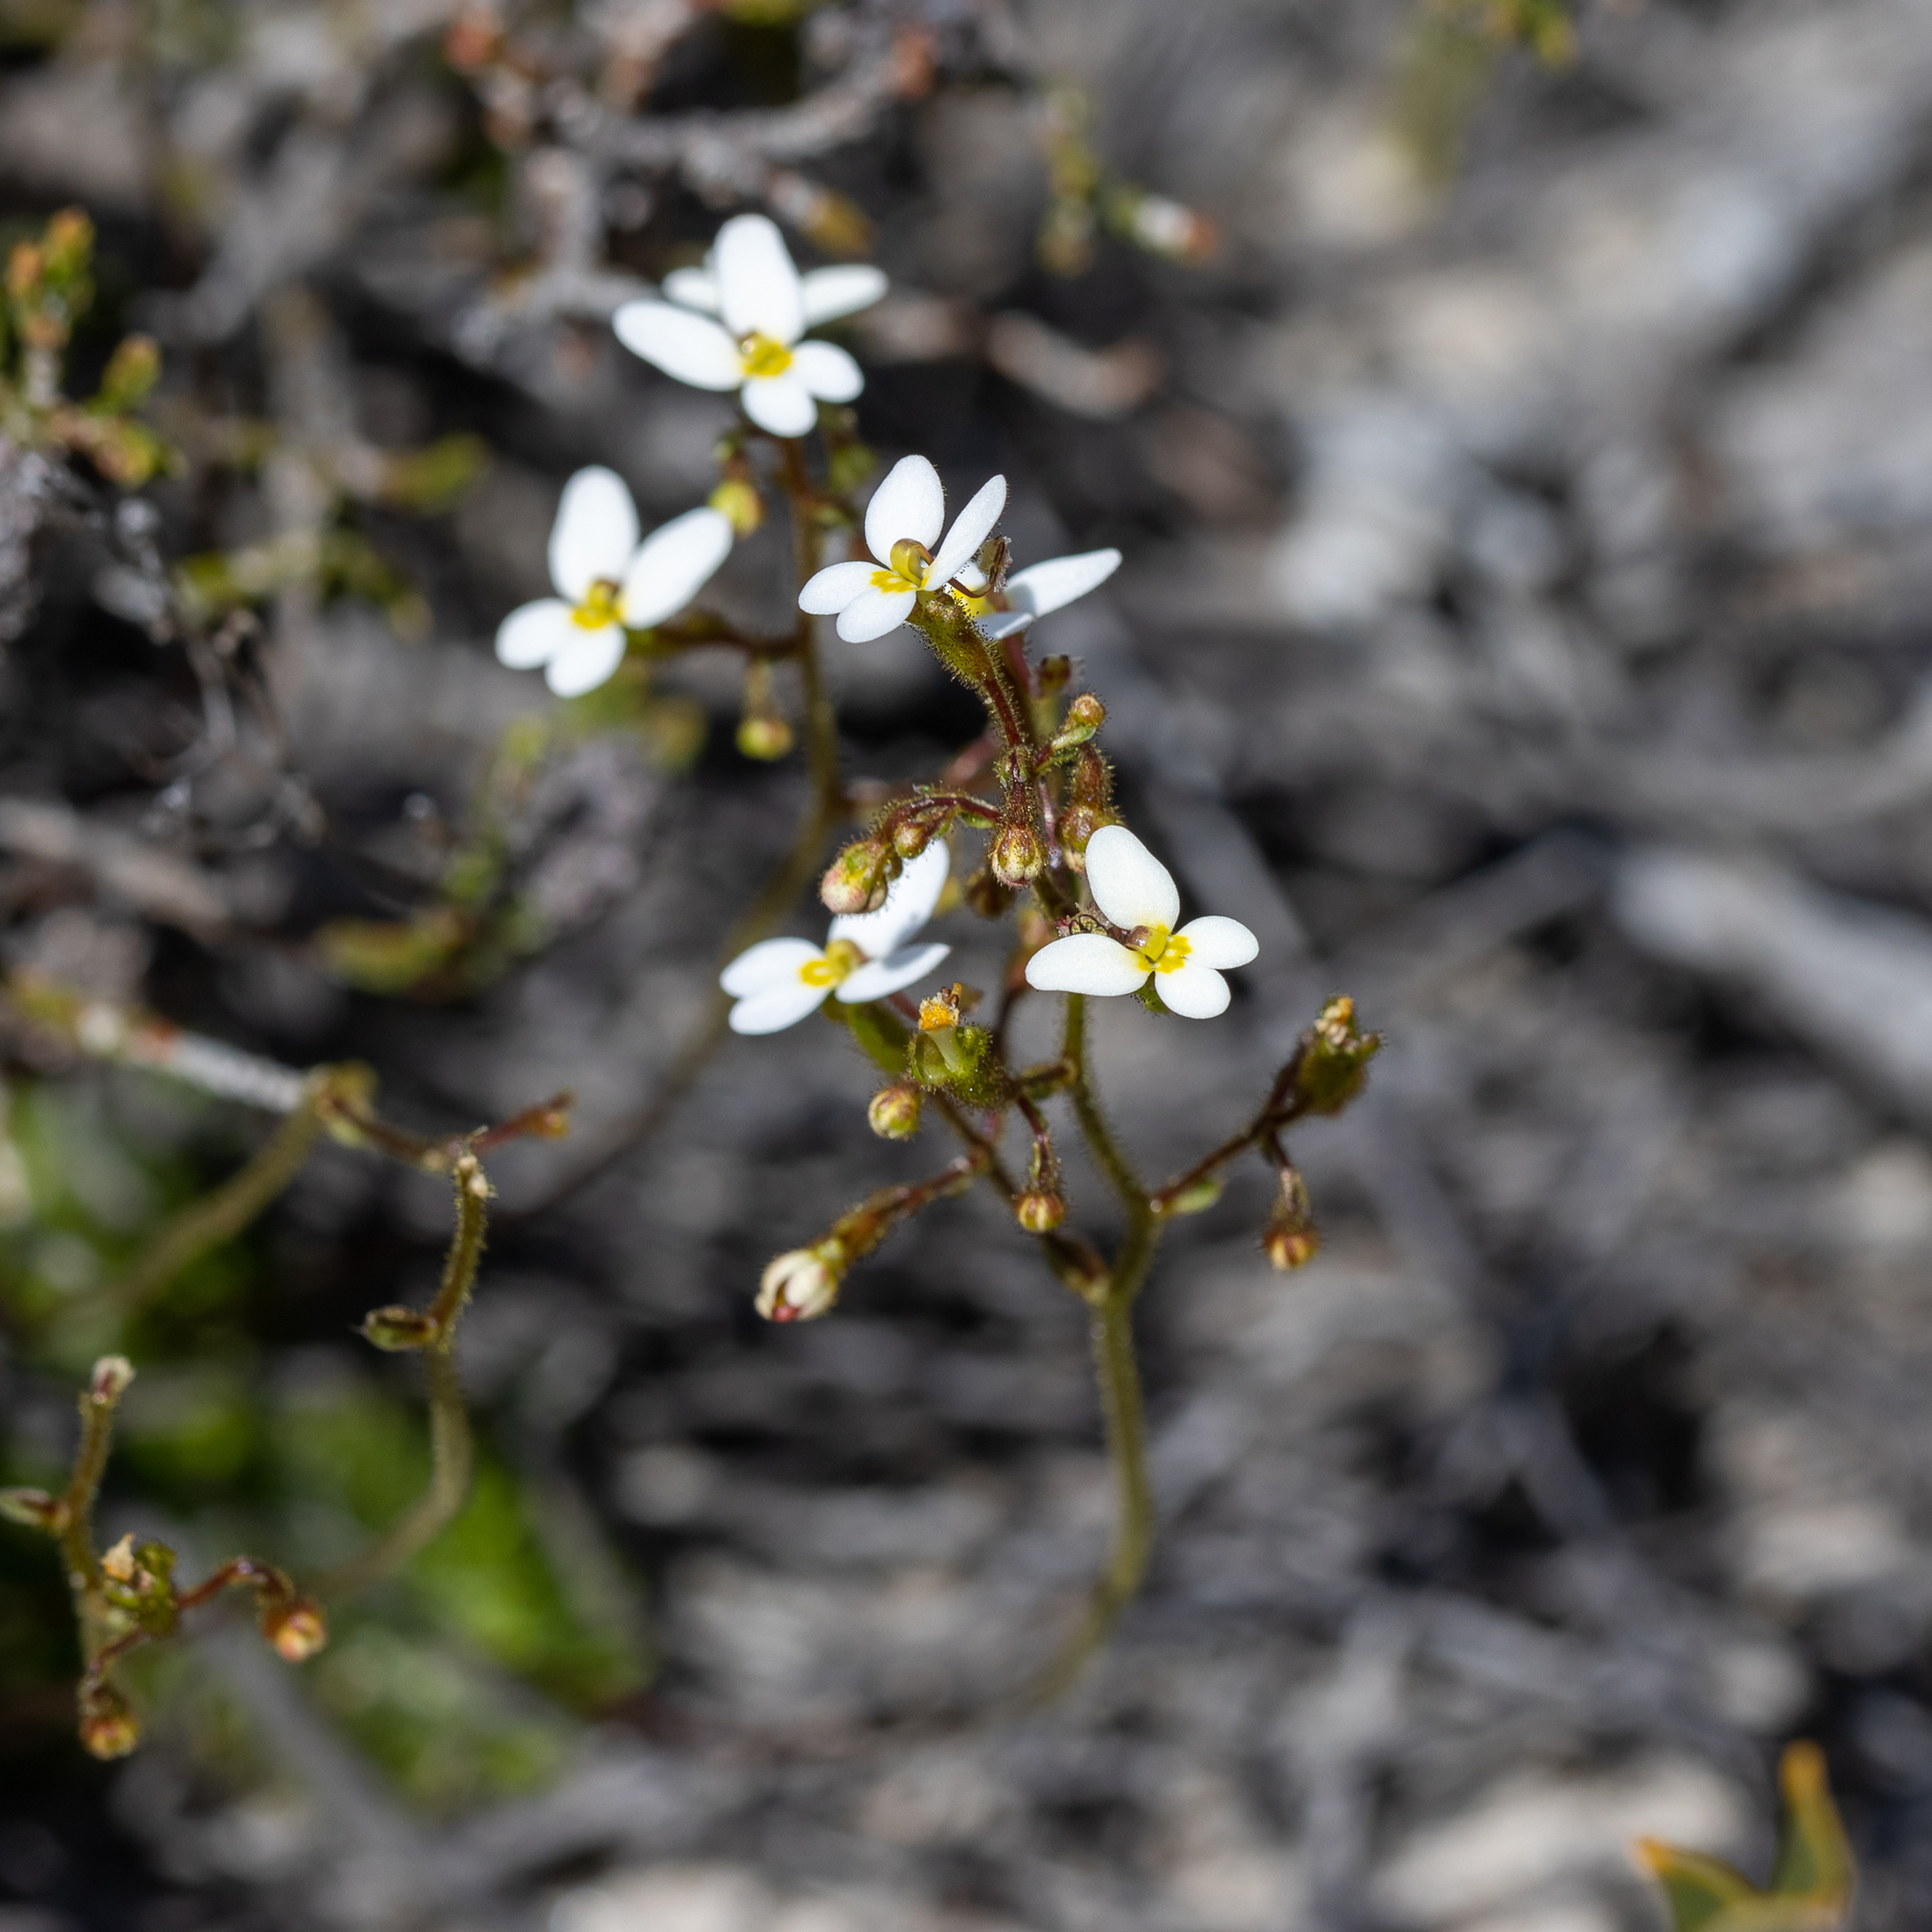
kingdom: Plantae
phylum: Tracheophyta
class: Magnoliopsida
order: Asterales
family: Stylidiaceae
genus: Stylidium
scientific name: Stylidium piliferum
